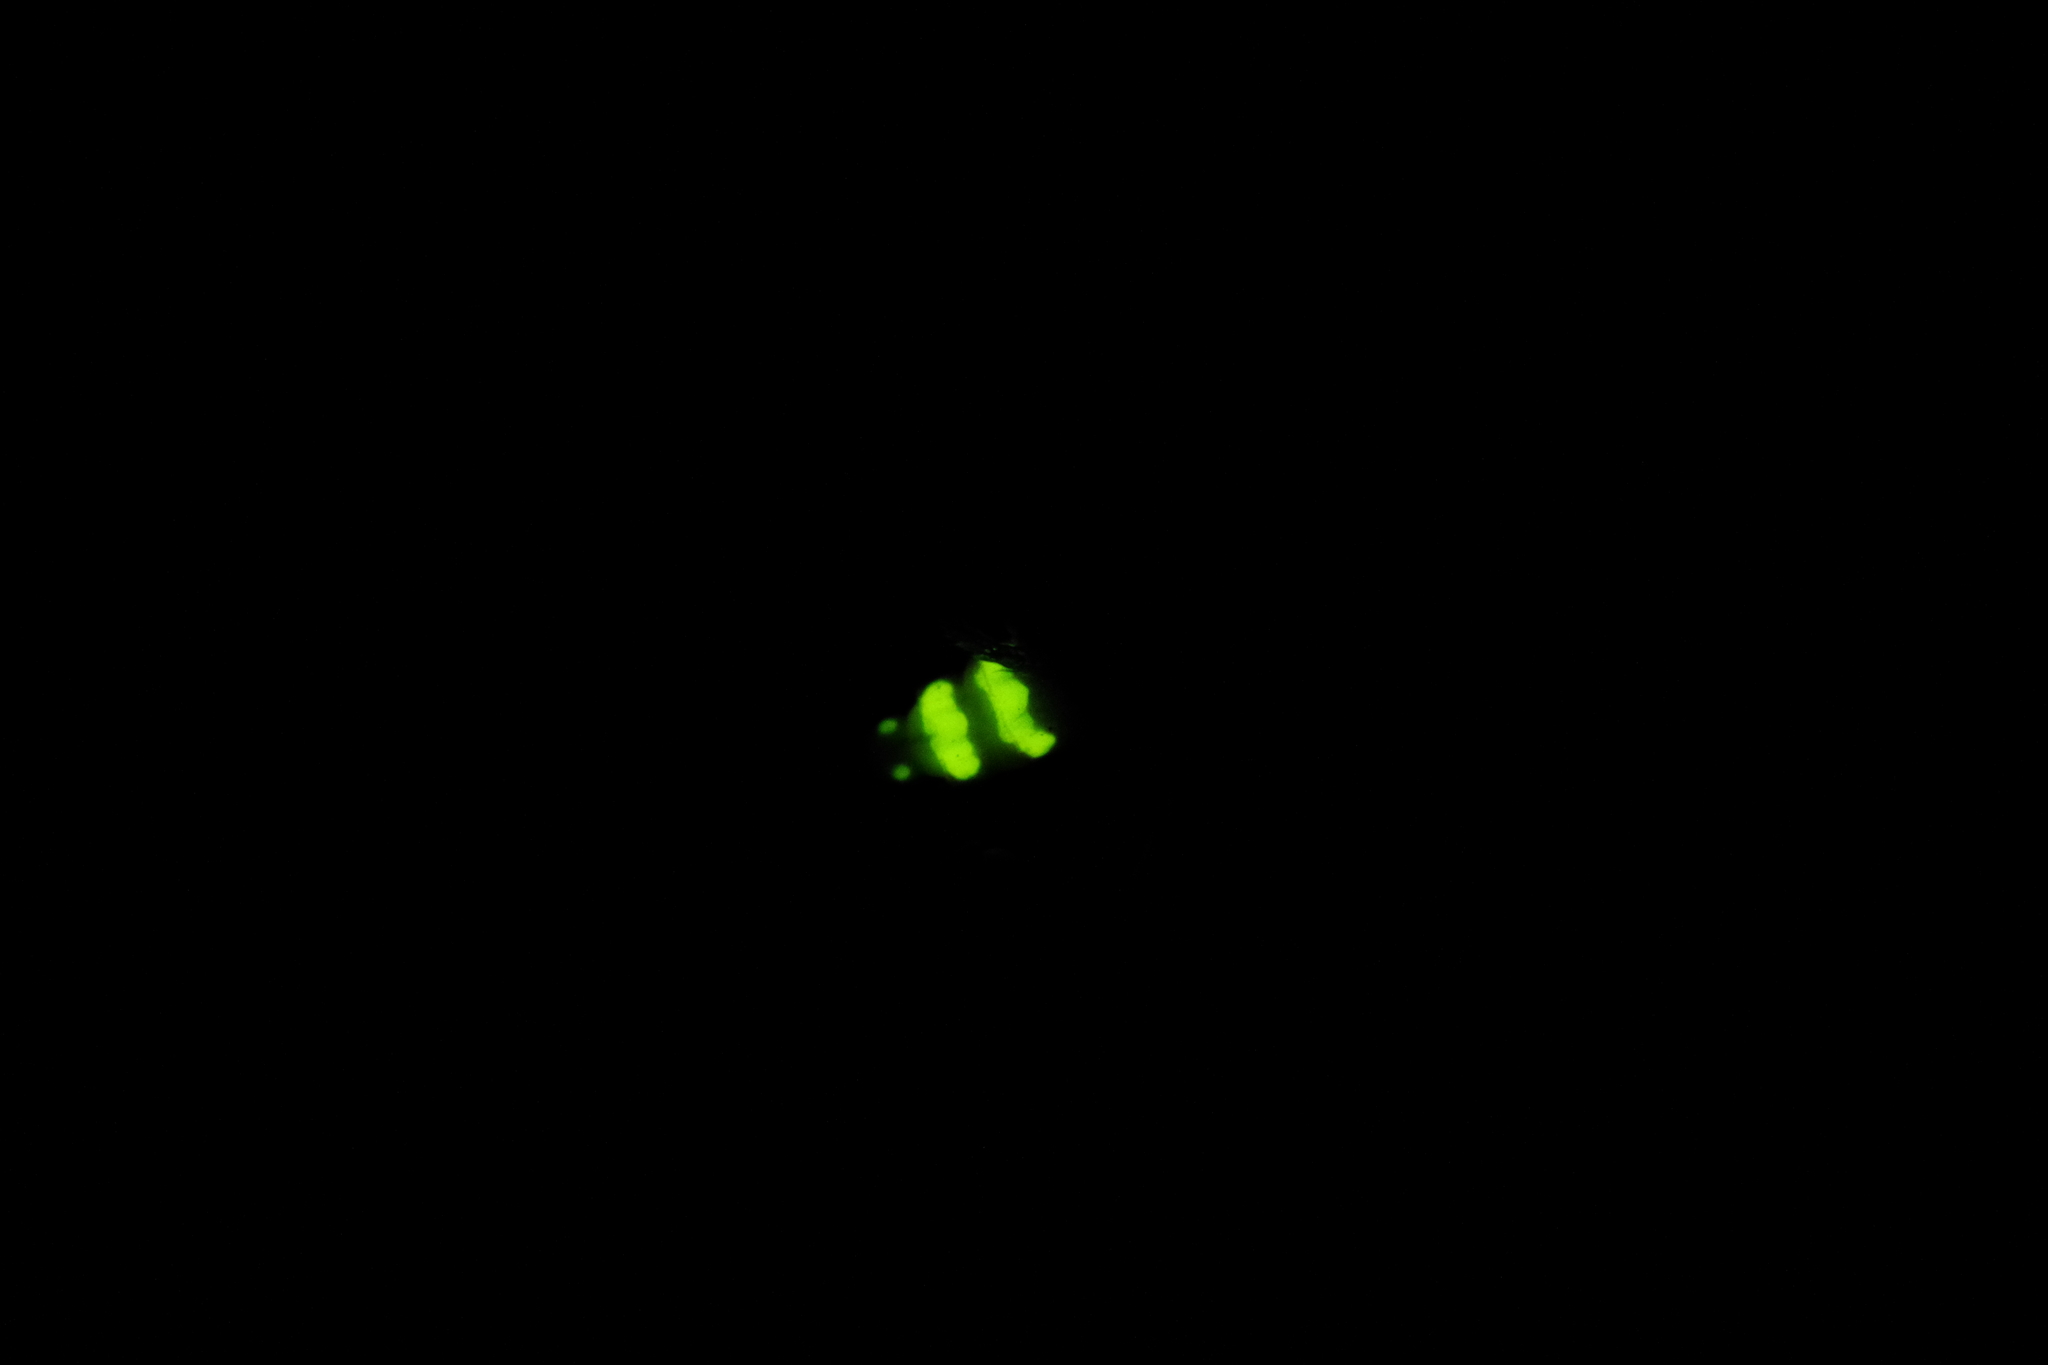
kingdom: Animalia
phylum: Arthropoda
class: Insecta
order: Coleoptera
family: Lampyridae
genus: Lampyris
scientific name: Lampyris noctiluca
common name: Glow-worm
